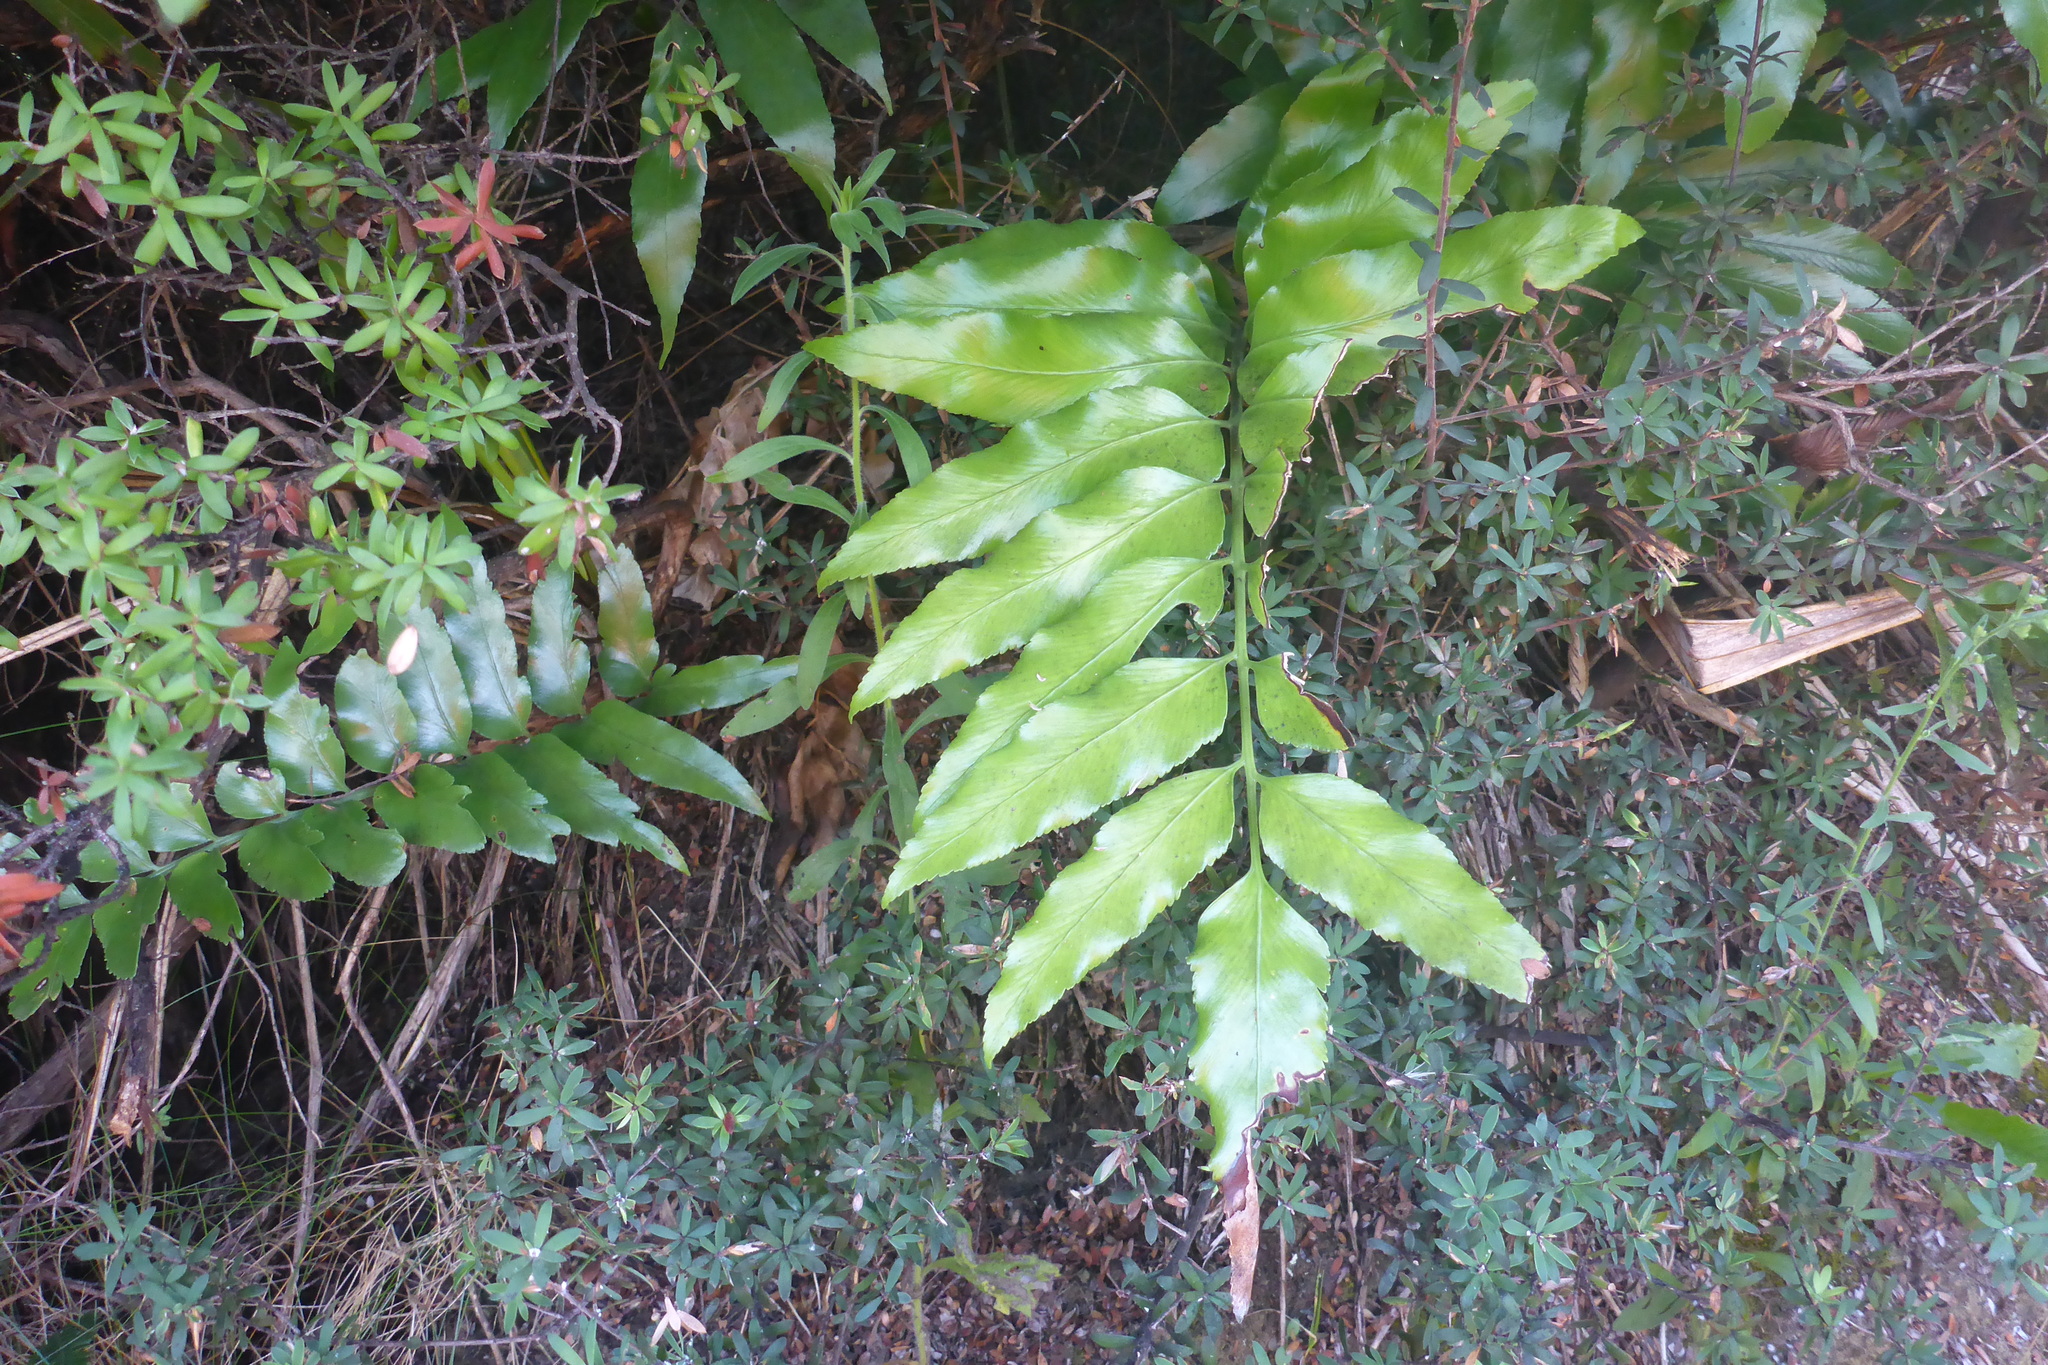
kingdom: Plantae
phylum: Tracheophyta
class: Polypodiopsida
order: Polypodiales
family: Aspleniaceae
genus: Asplenium
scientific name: Asplenium oblongifolium
